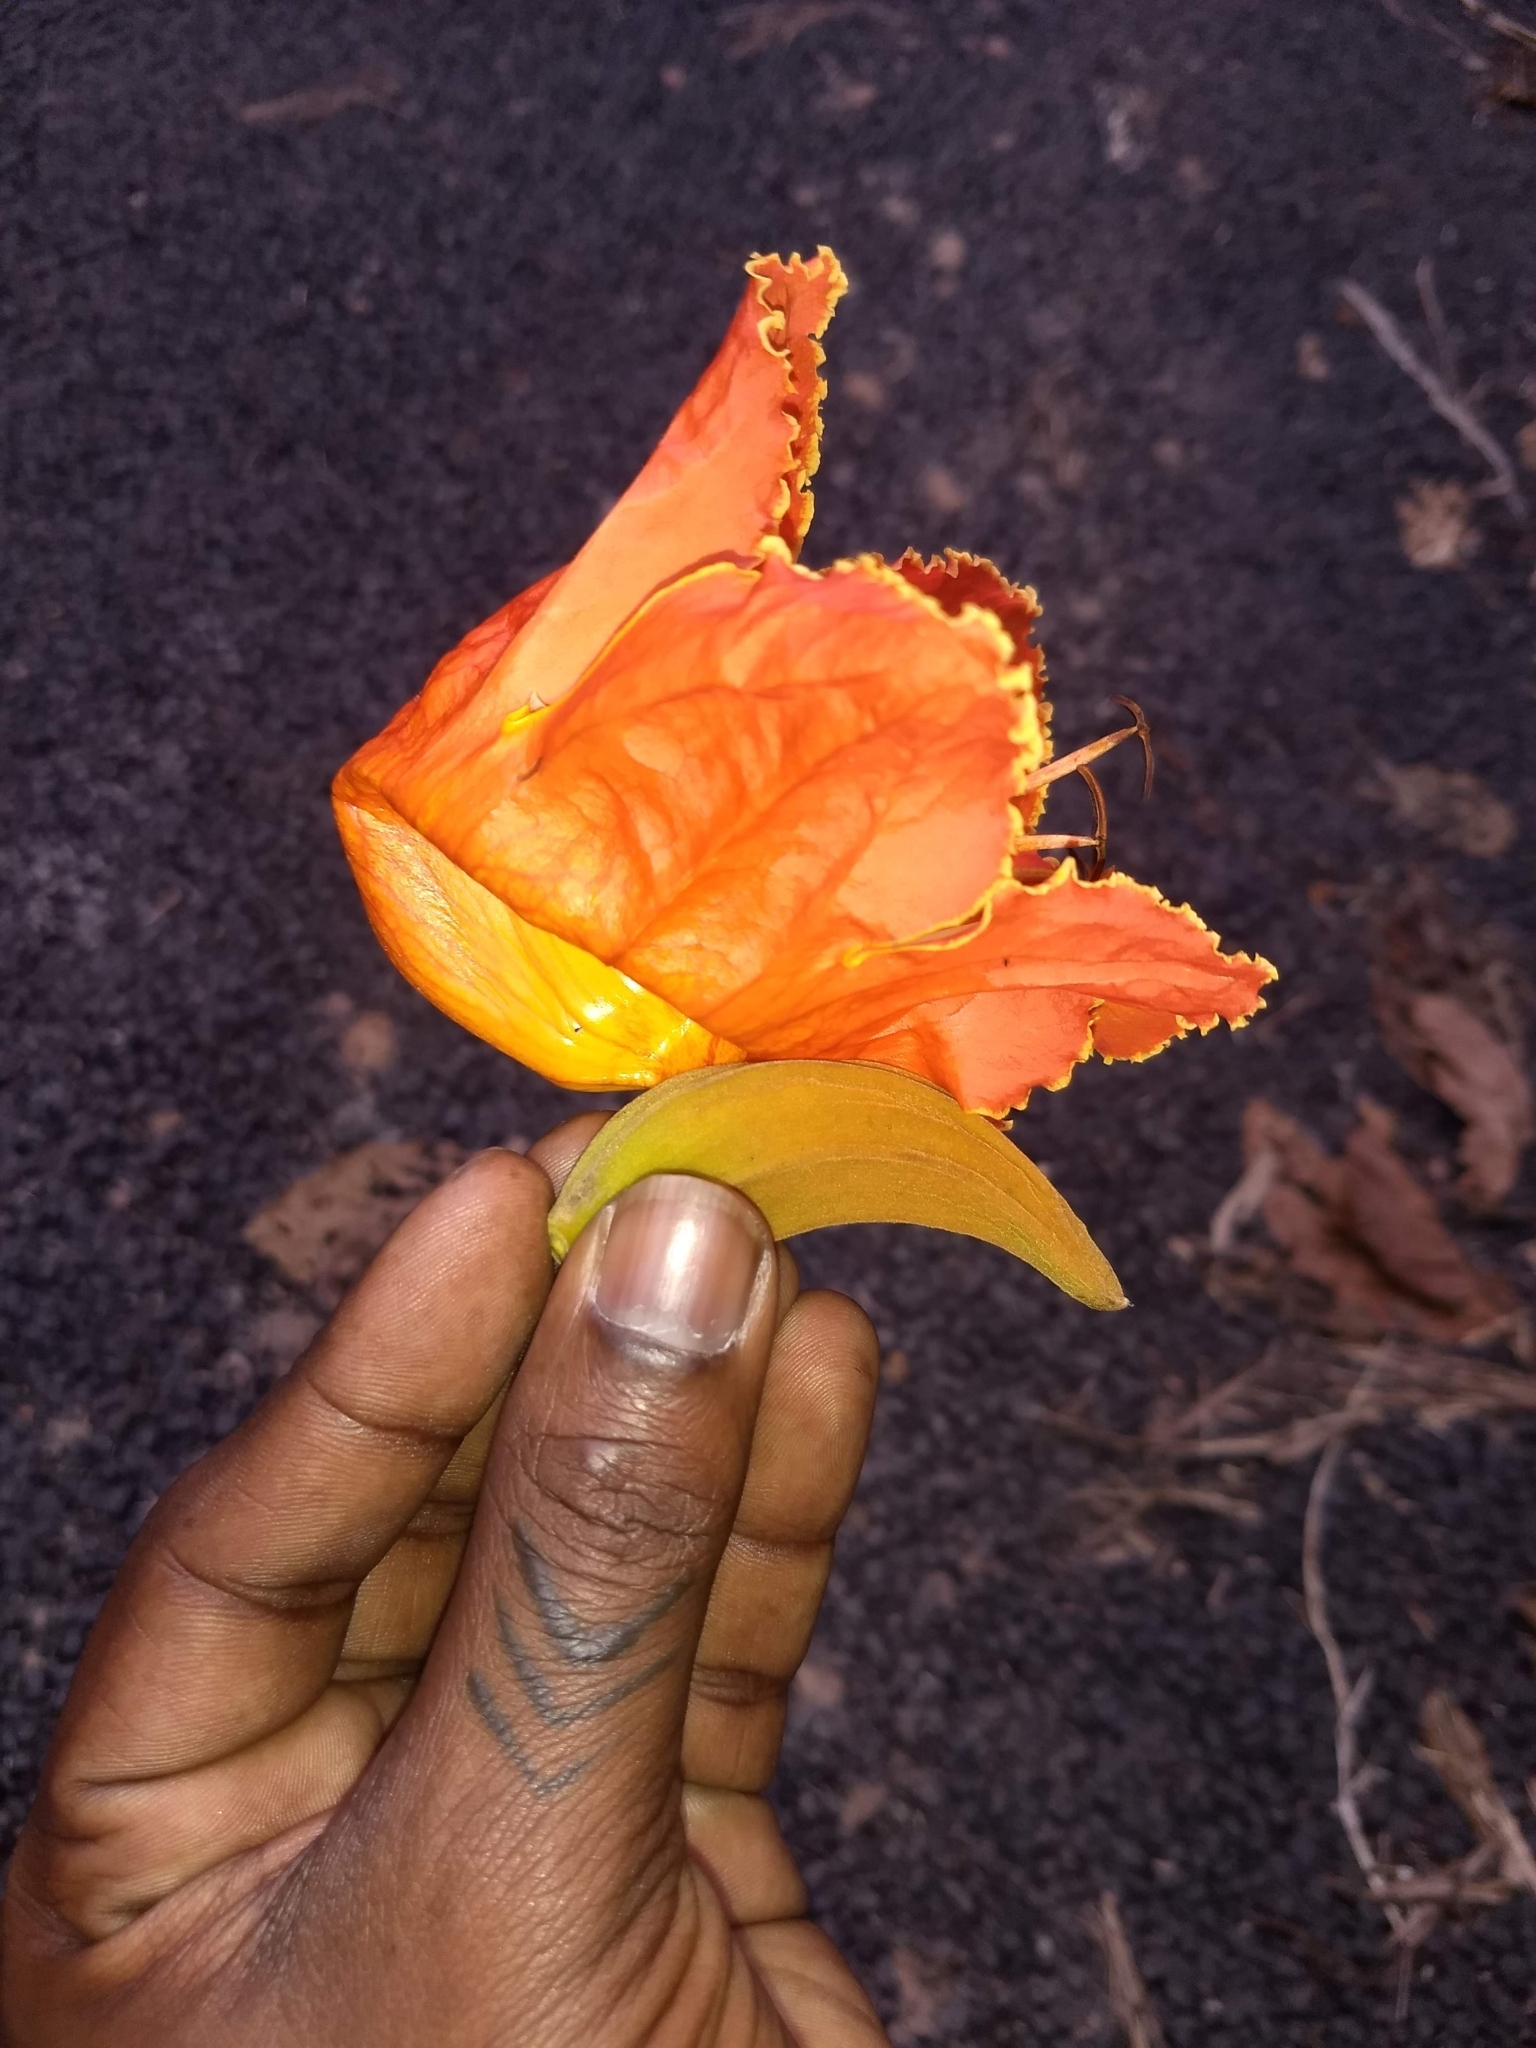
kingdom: Plantae
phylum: Tracheophyta
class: Magnoliopsida
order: Lamiales
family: Bignoniaceae
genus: Spathodea
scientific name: Spathodea campanulata
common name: African tuliptree
